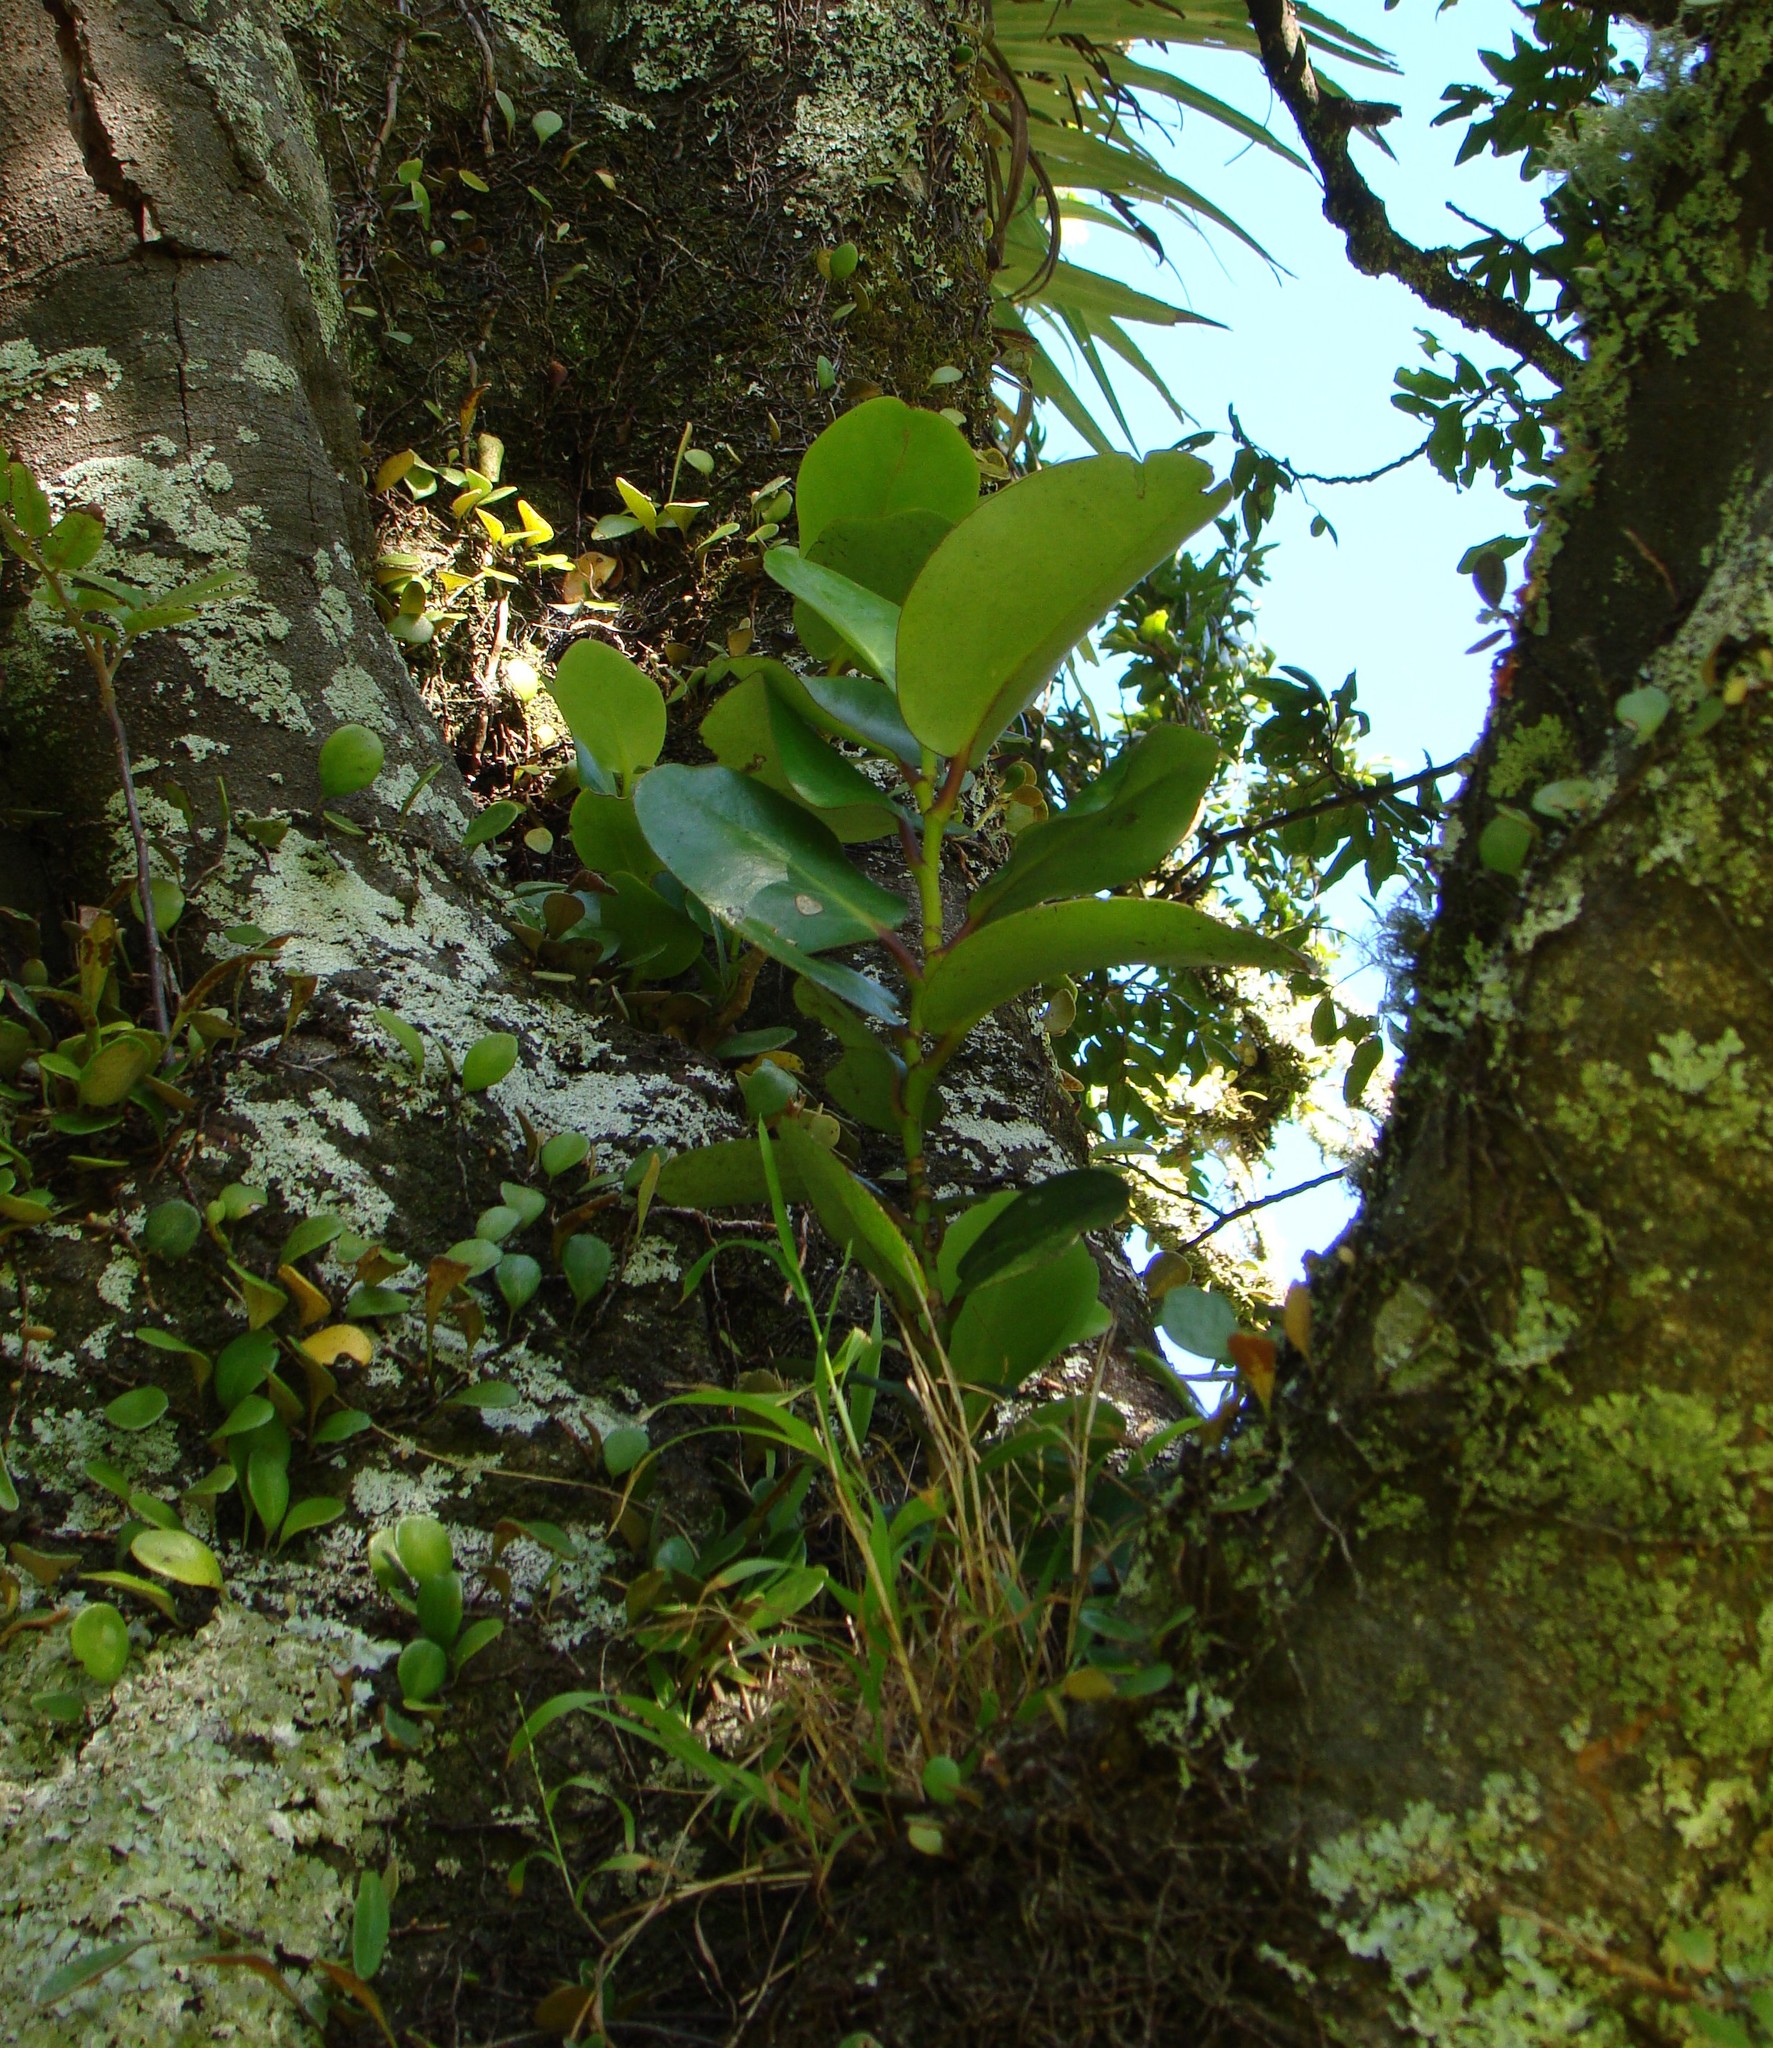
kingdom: Plantae
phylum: Tracheophyta
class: Magnoliopsida
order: Apiales
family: Griseliniaceae
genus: Griselinia
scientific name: Griselinia lucida
